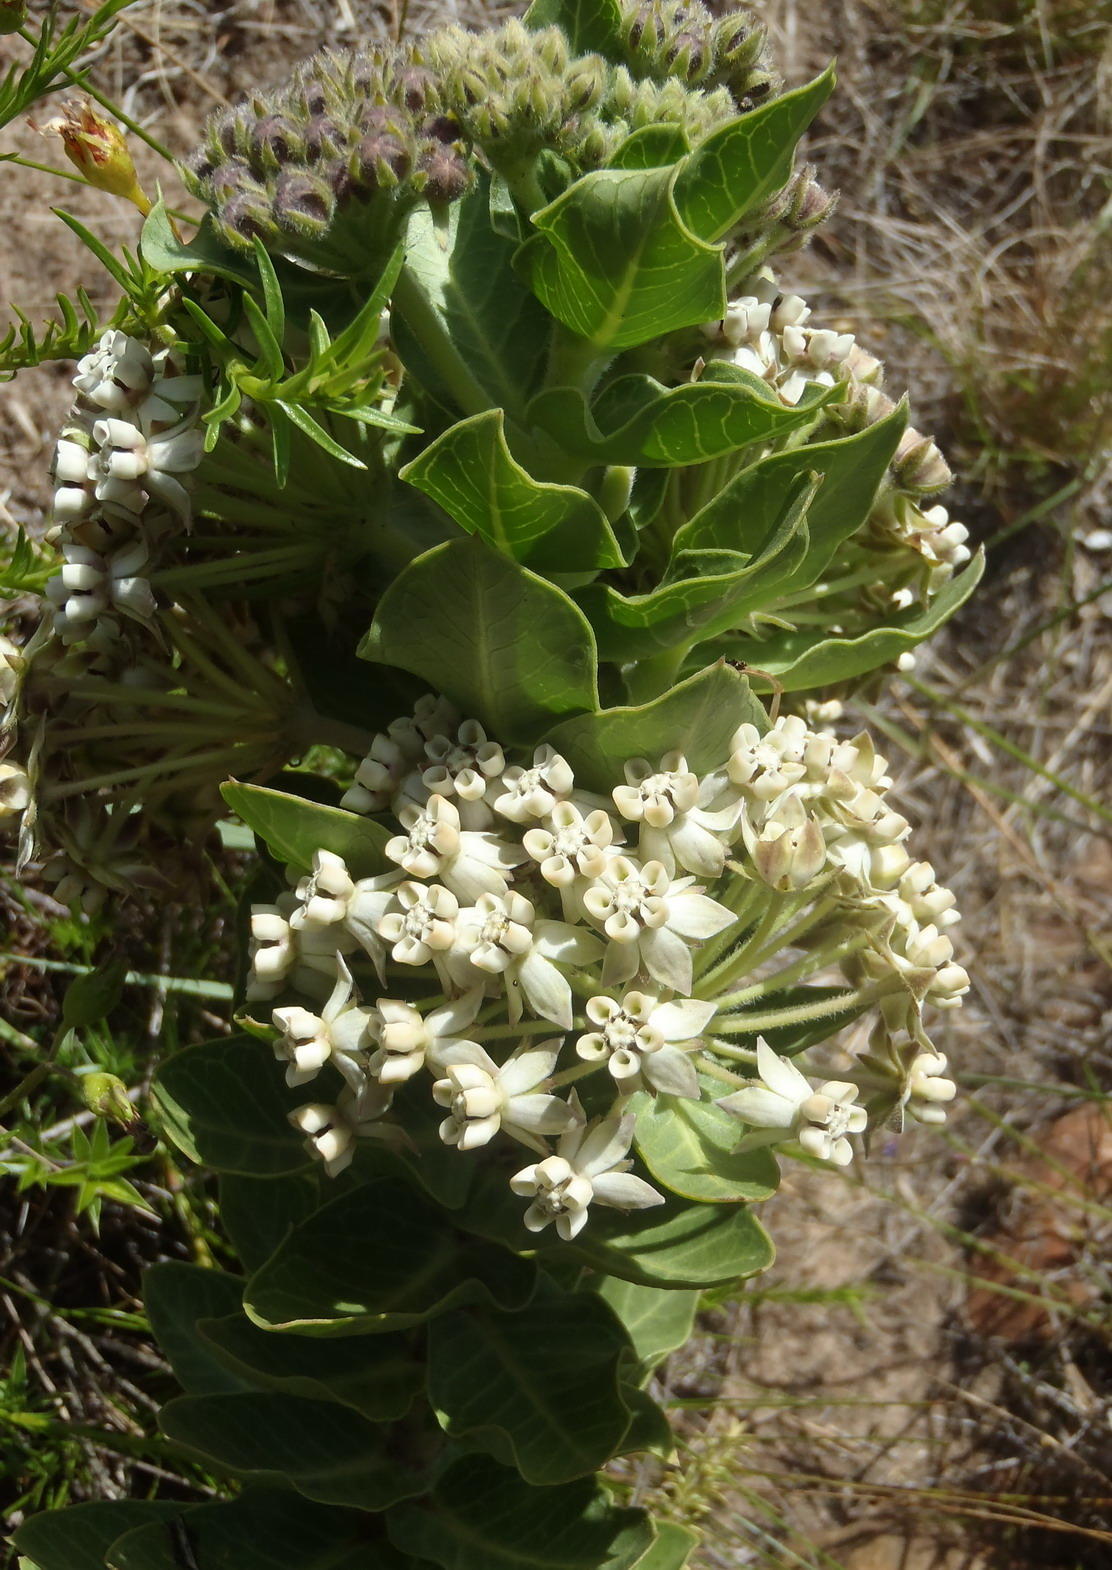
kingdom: Plantae
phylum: Tracheophyta
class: Magnoliopsida
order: Gentianales
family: Apocynaceae
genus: Gomphocarpus
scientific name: Gomphocarpus cancellatus
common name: Wild cotton
